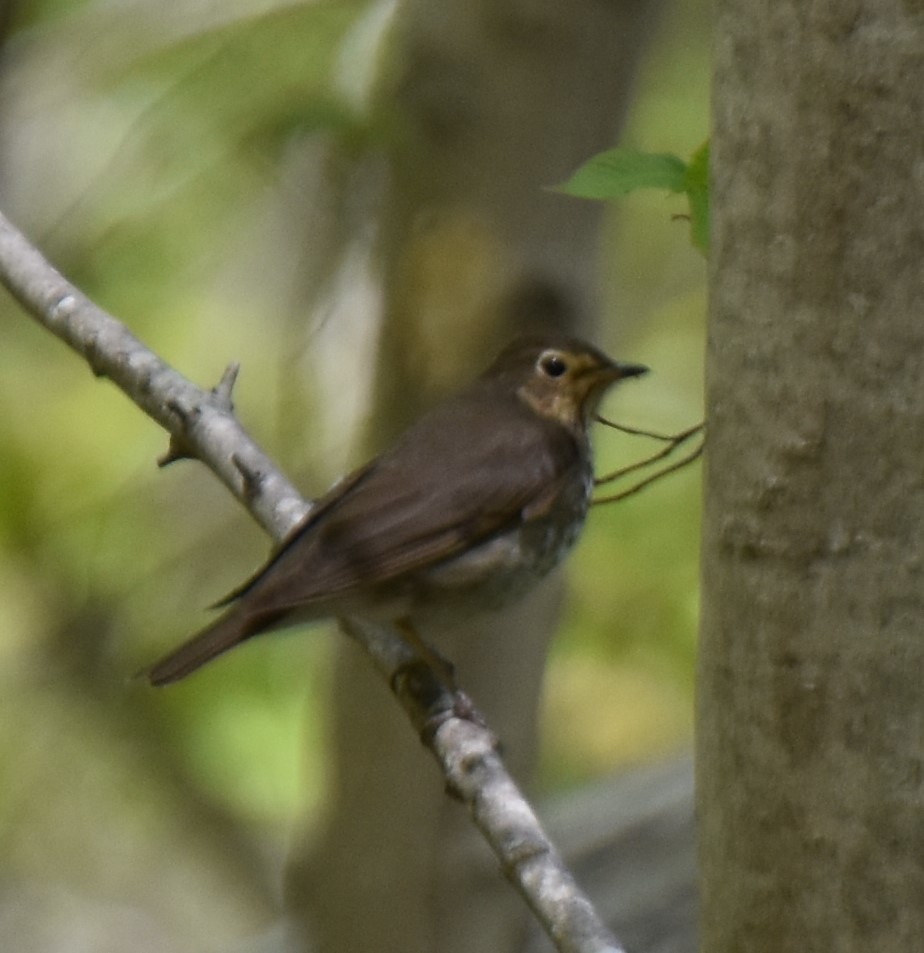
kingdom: Animalia
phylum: Chordata
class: Aves
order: Passeriformes
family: Turdidae
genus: Catharus
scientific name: Catharus ustulatus
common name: Swainson's thrush
